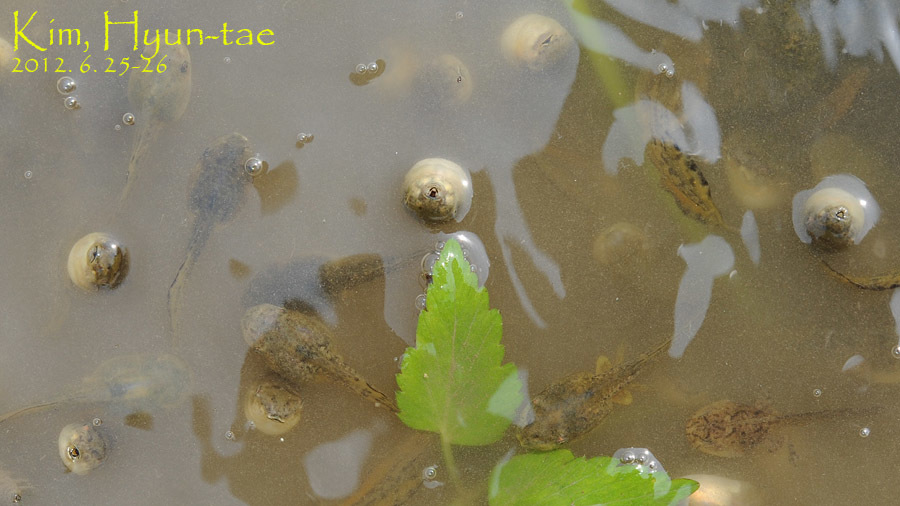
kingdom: Animalia
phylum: Chordata
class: Amphibia
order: Anura
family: Hylidae
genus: Dryophytes
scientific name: Dryophytes japonicus
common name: Japanese treefrog
